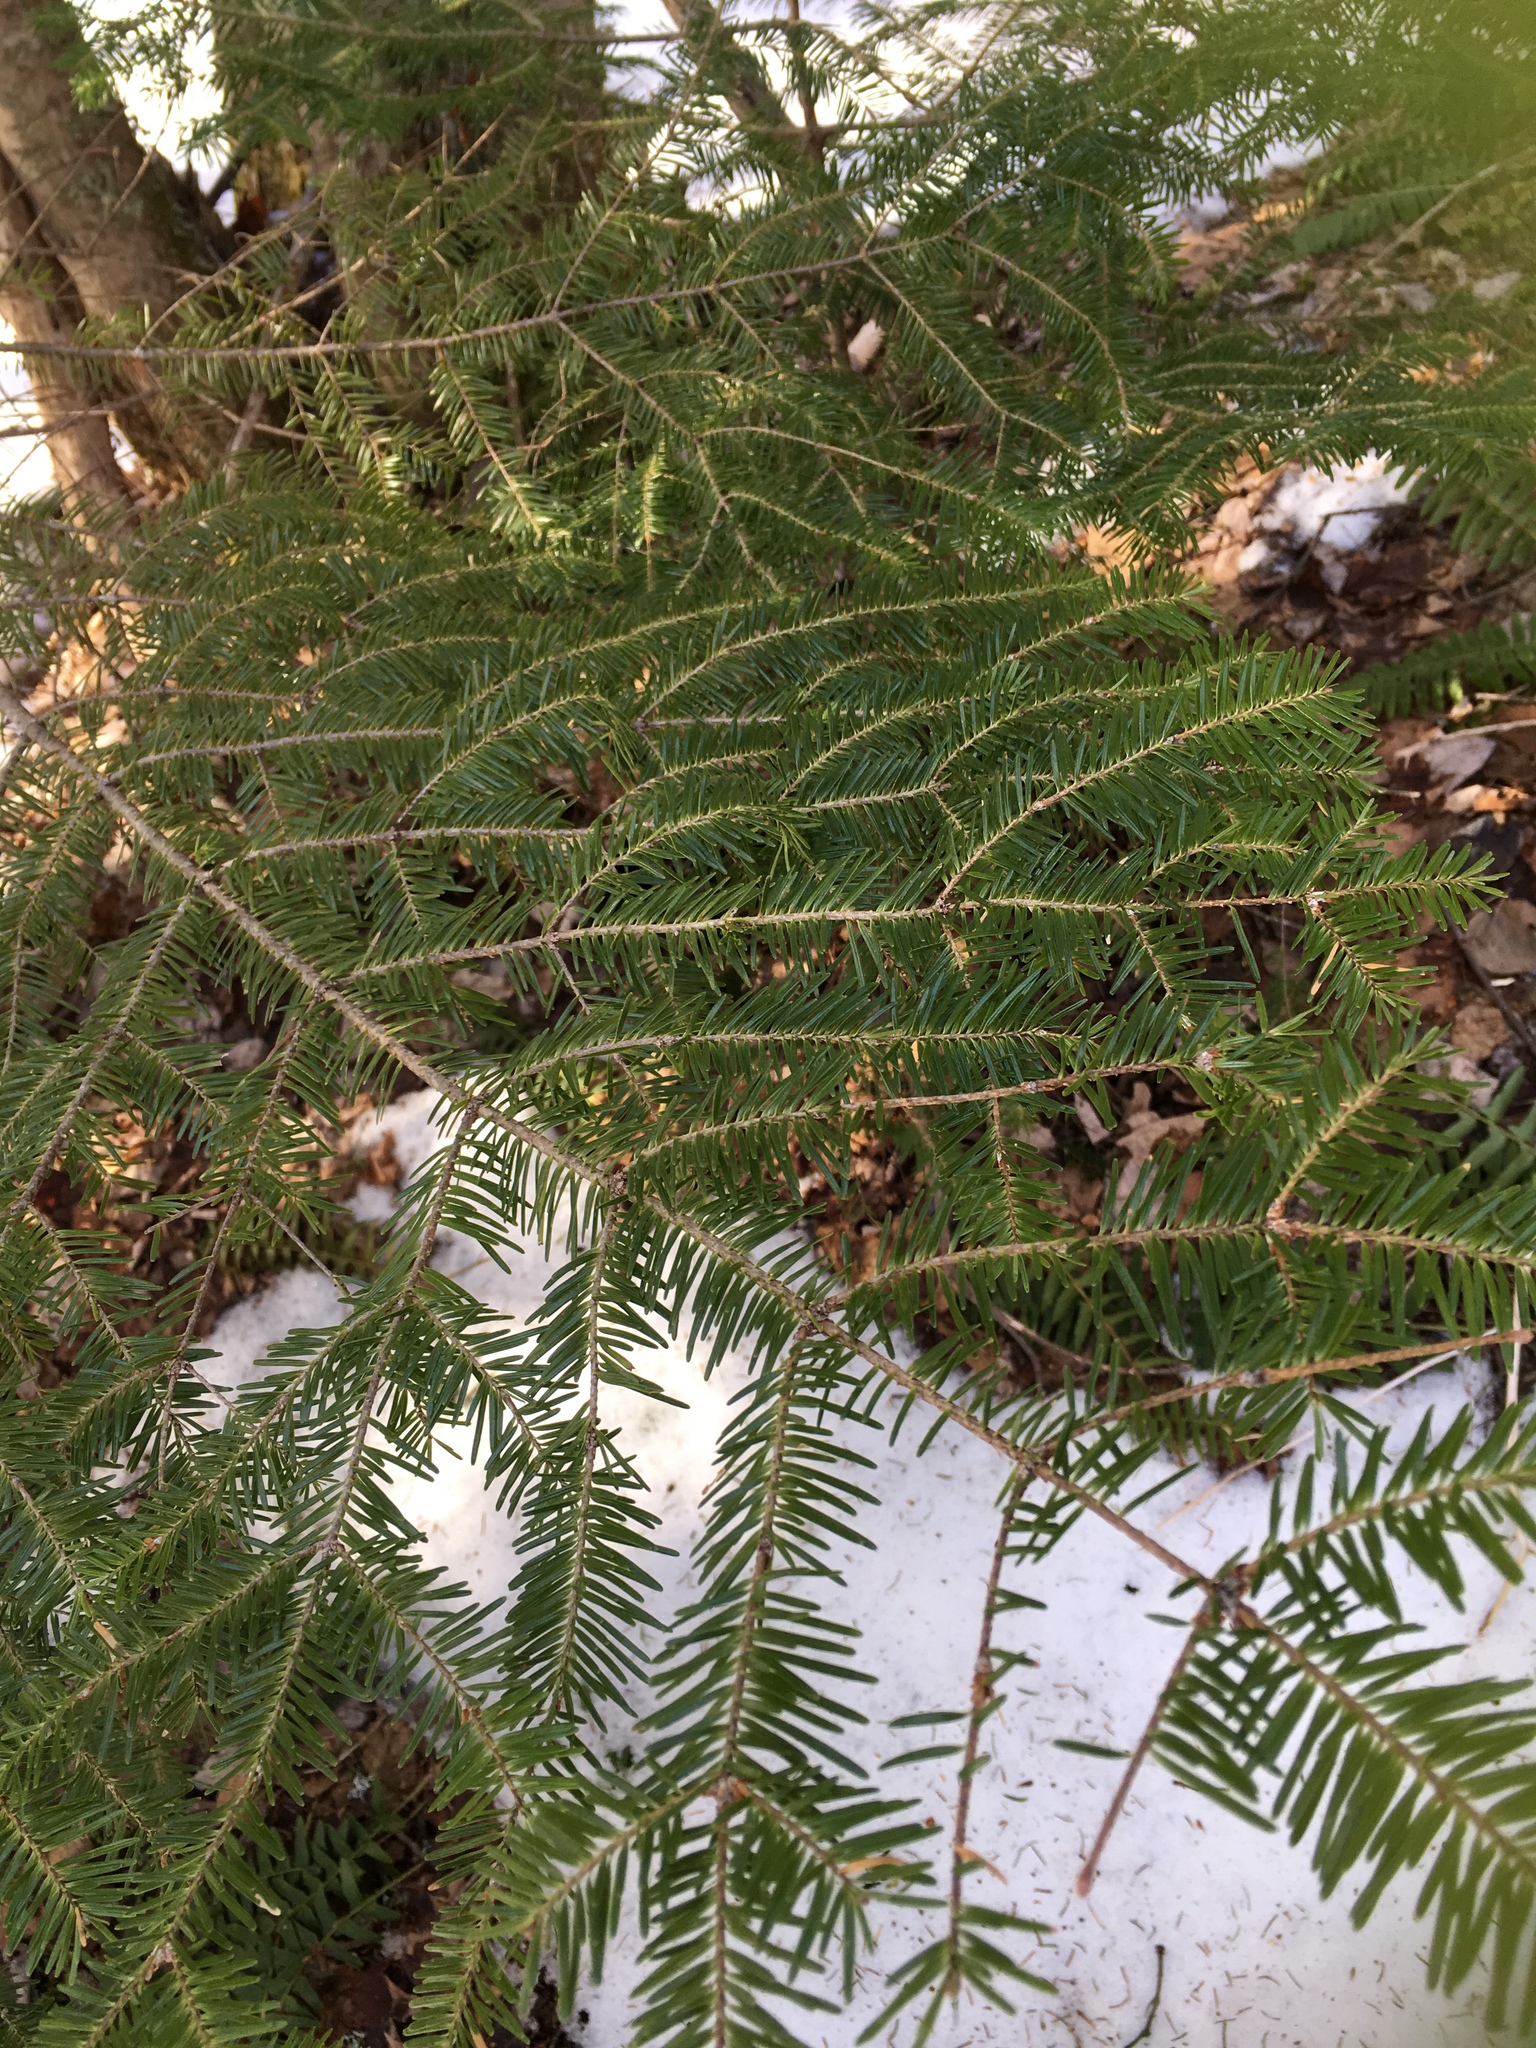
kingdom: Plantae
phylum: Tracheophyta
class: Pinopsida
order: Pinales
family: Pinaceae
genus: Abies
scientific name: Abies balsamea
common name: Balsam fir
